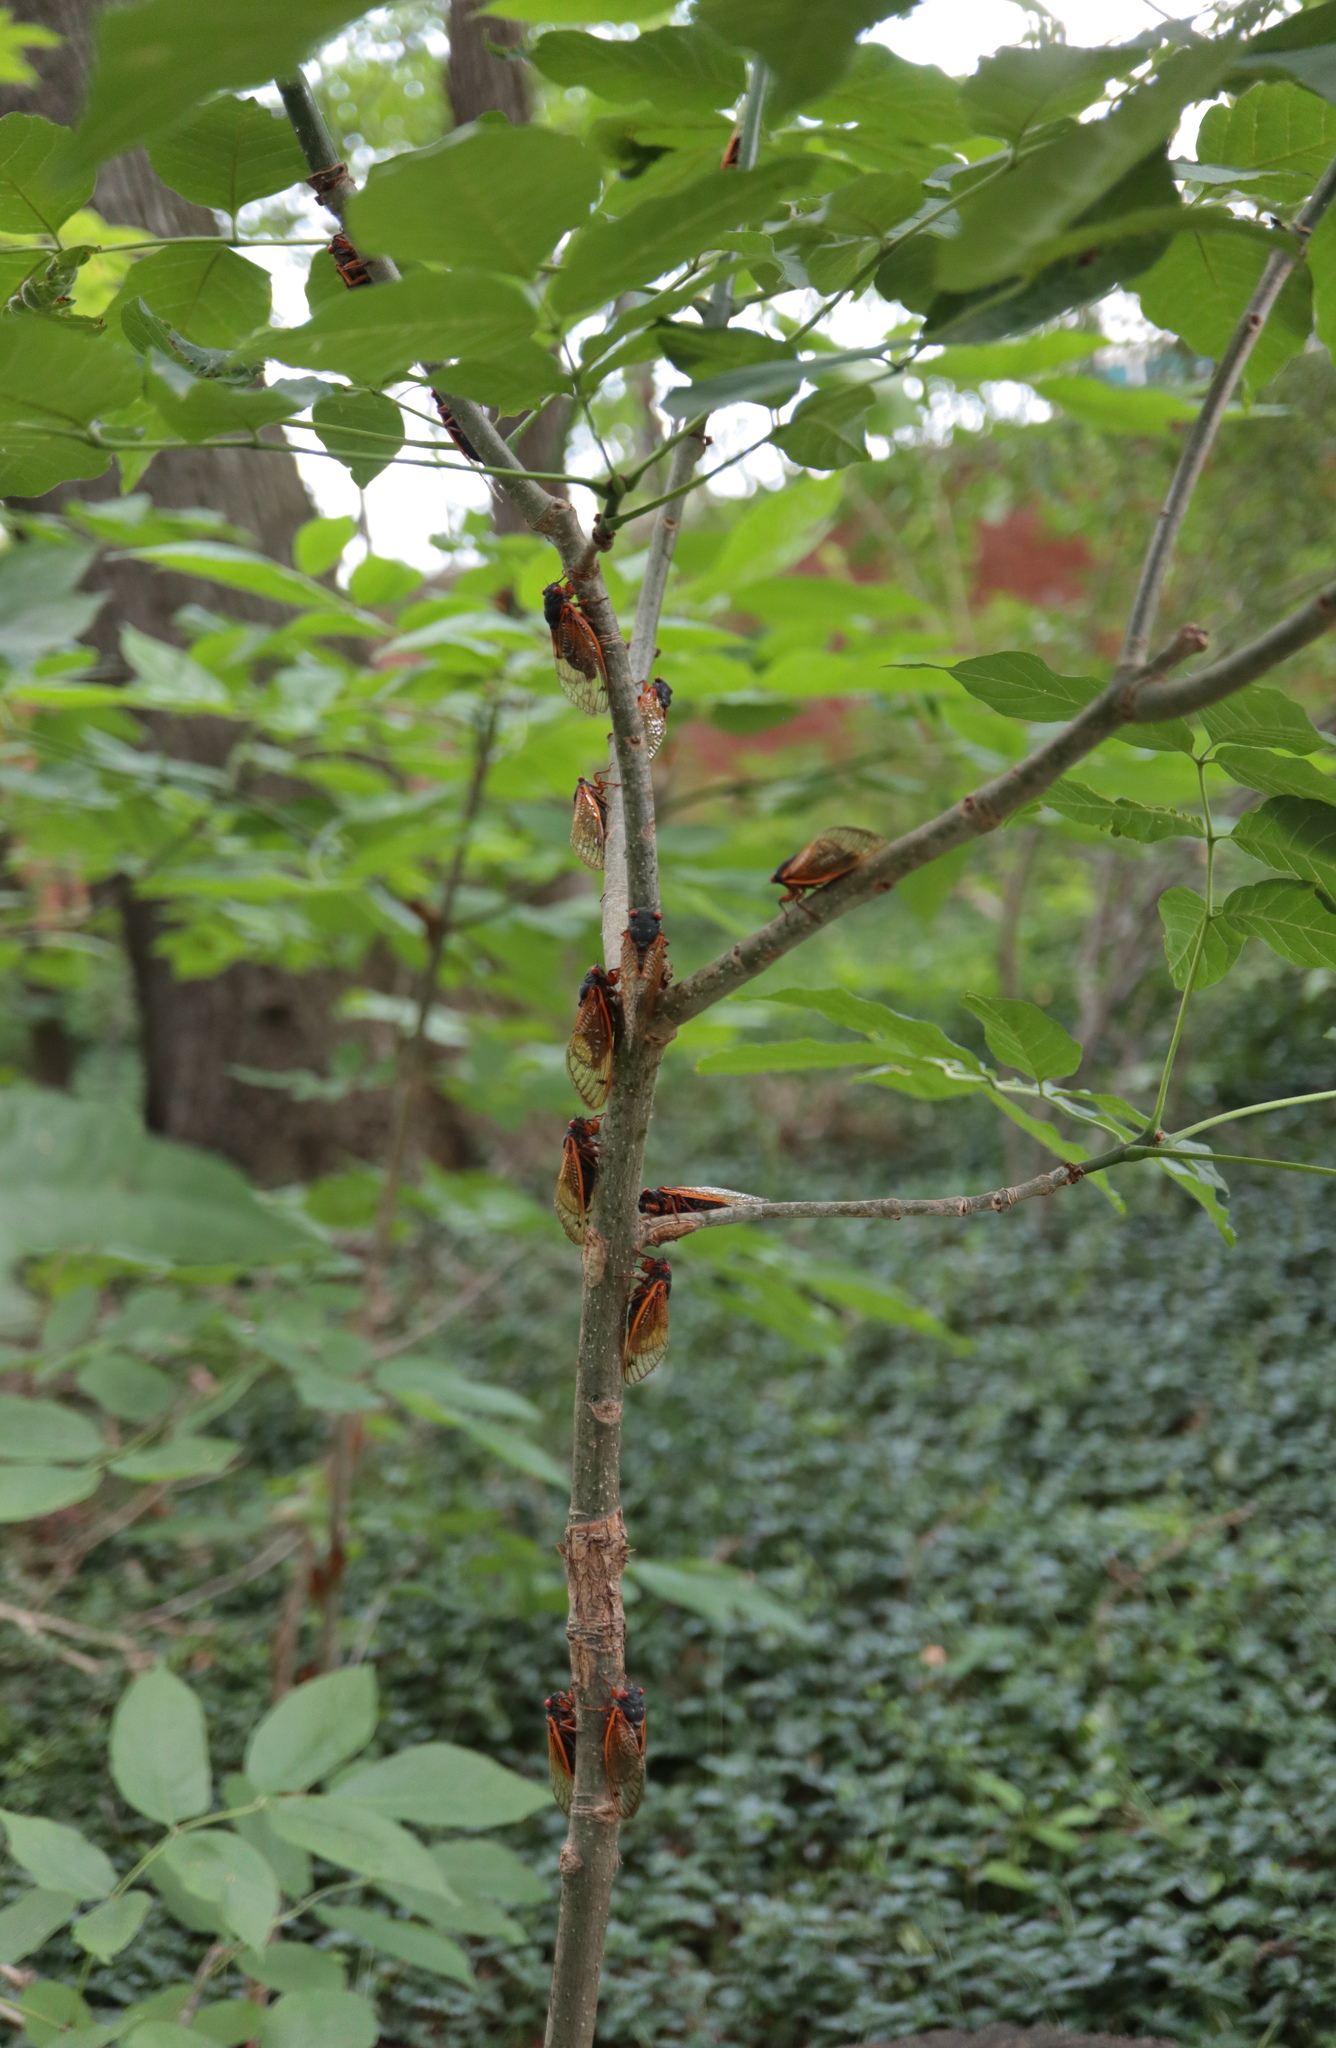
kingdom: Animalia
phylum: Arthropoda
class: Insecta
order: Hemiptera
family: Cicadidae
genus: Magicicada
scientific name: Magicicada cassini
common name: Cassin's 17-year cicada
